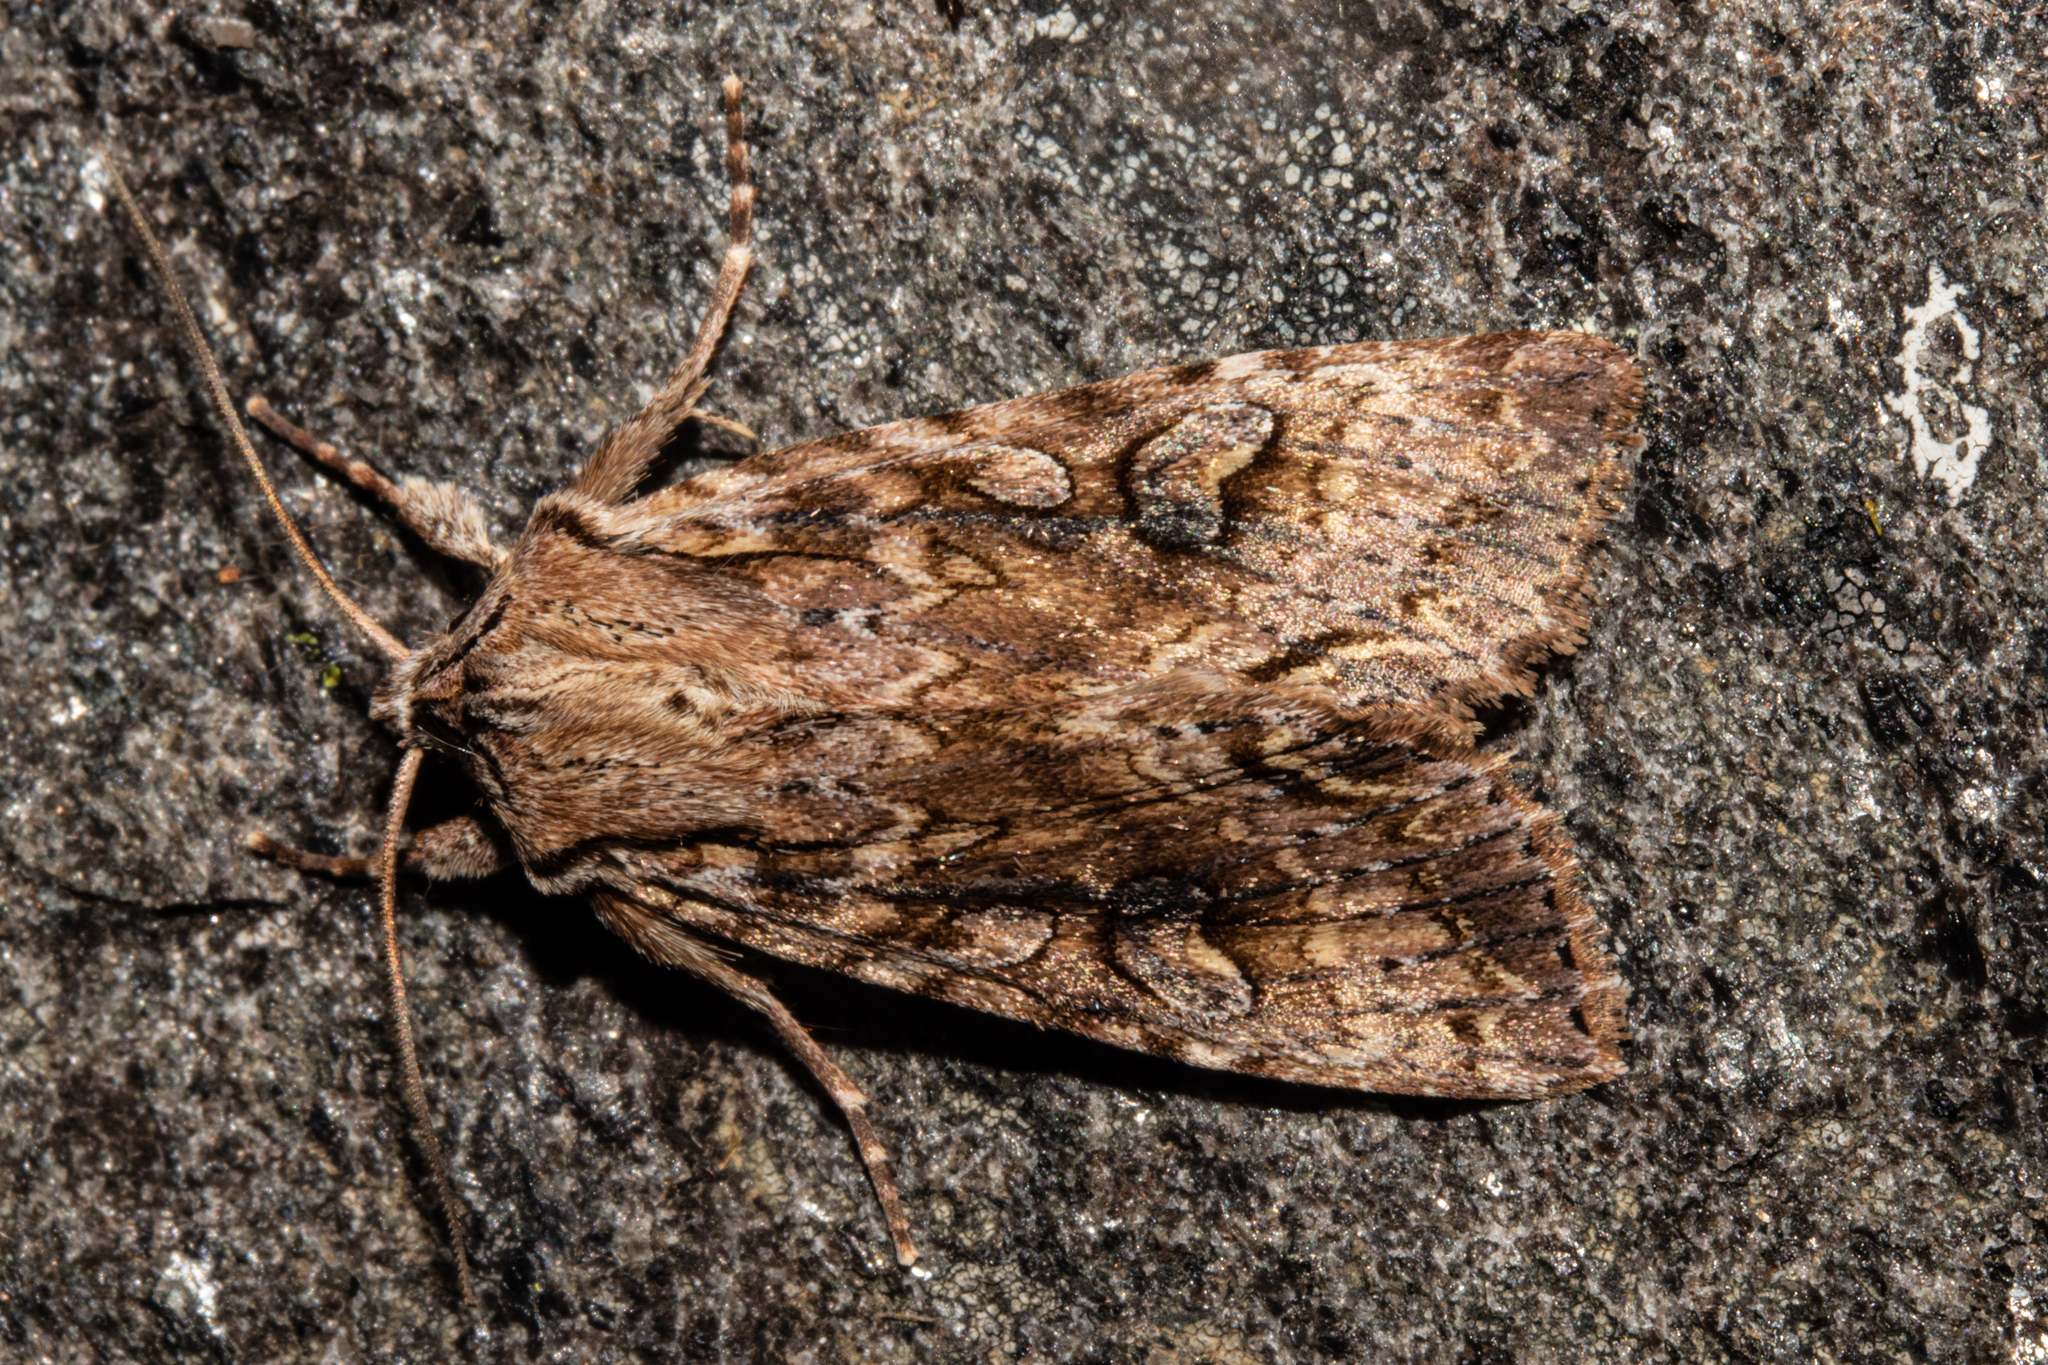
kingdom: Animalia
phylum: Arthropoda
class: Insecta
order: Lepidoptera
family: Noctuidae
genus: Ichneutica
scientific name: Ichneutica lindsayorum
